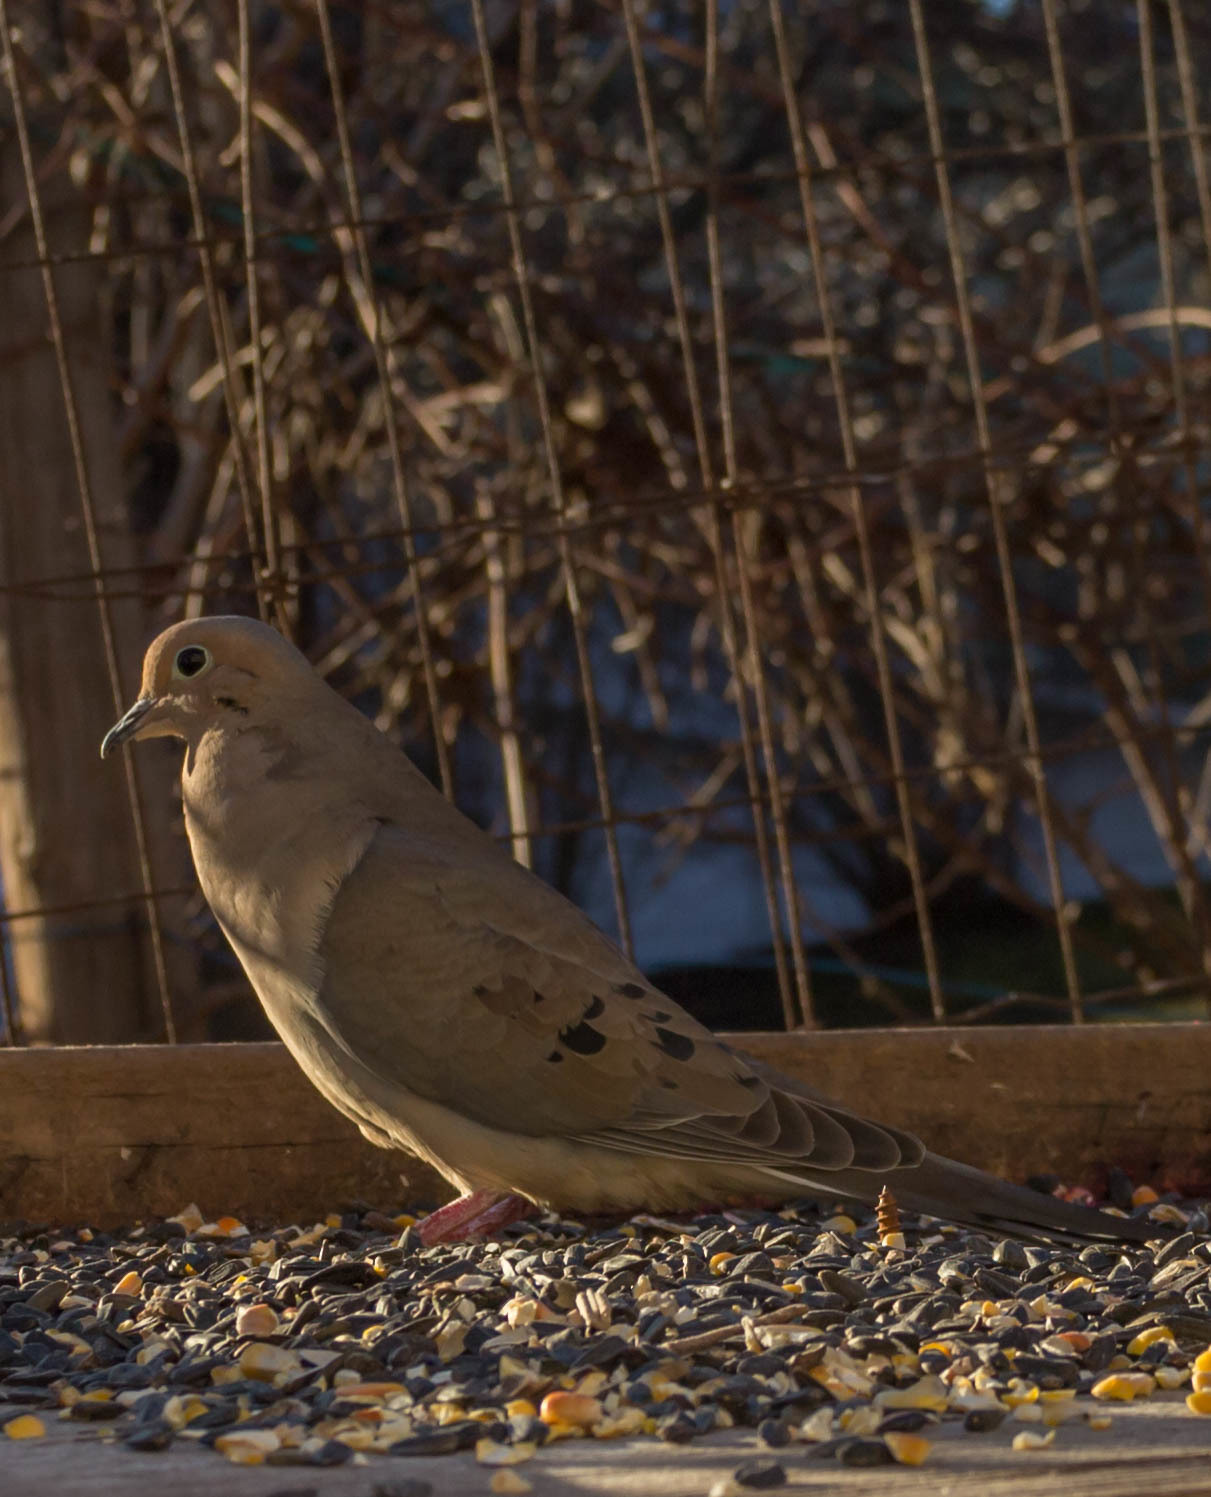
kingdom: Animalia
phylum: Chordata
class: Aves
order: Columbiformes
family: Columbidae
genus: Zenaida
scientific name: Zenaida macroura
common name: Mourning dove
